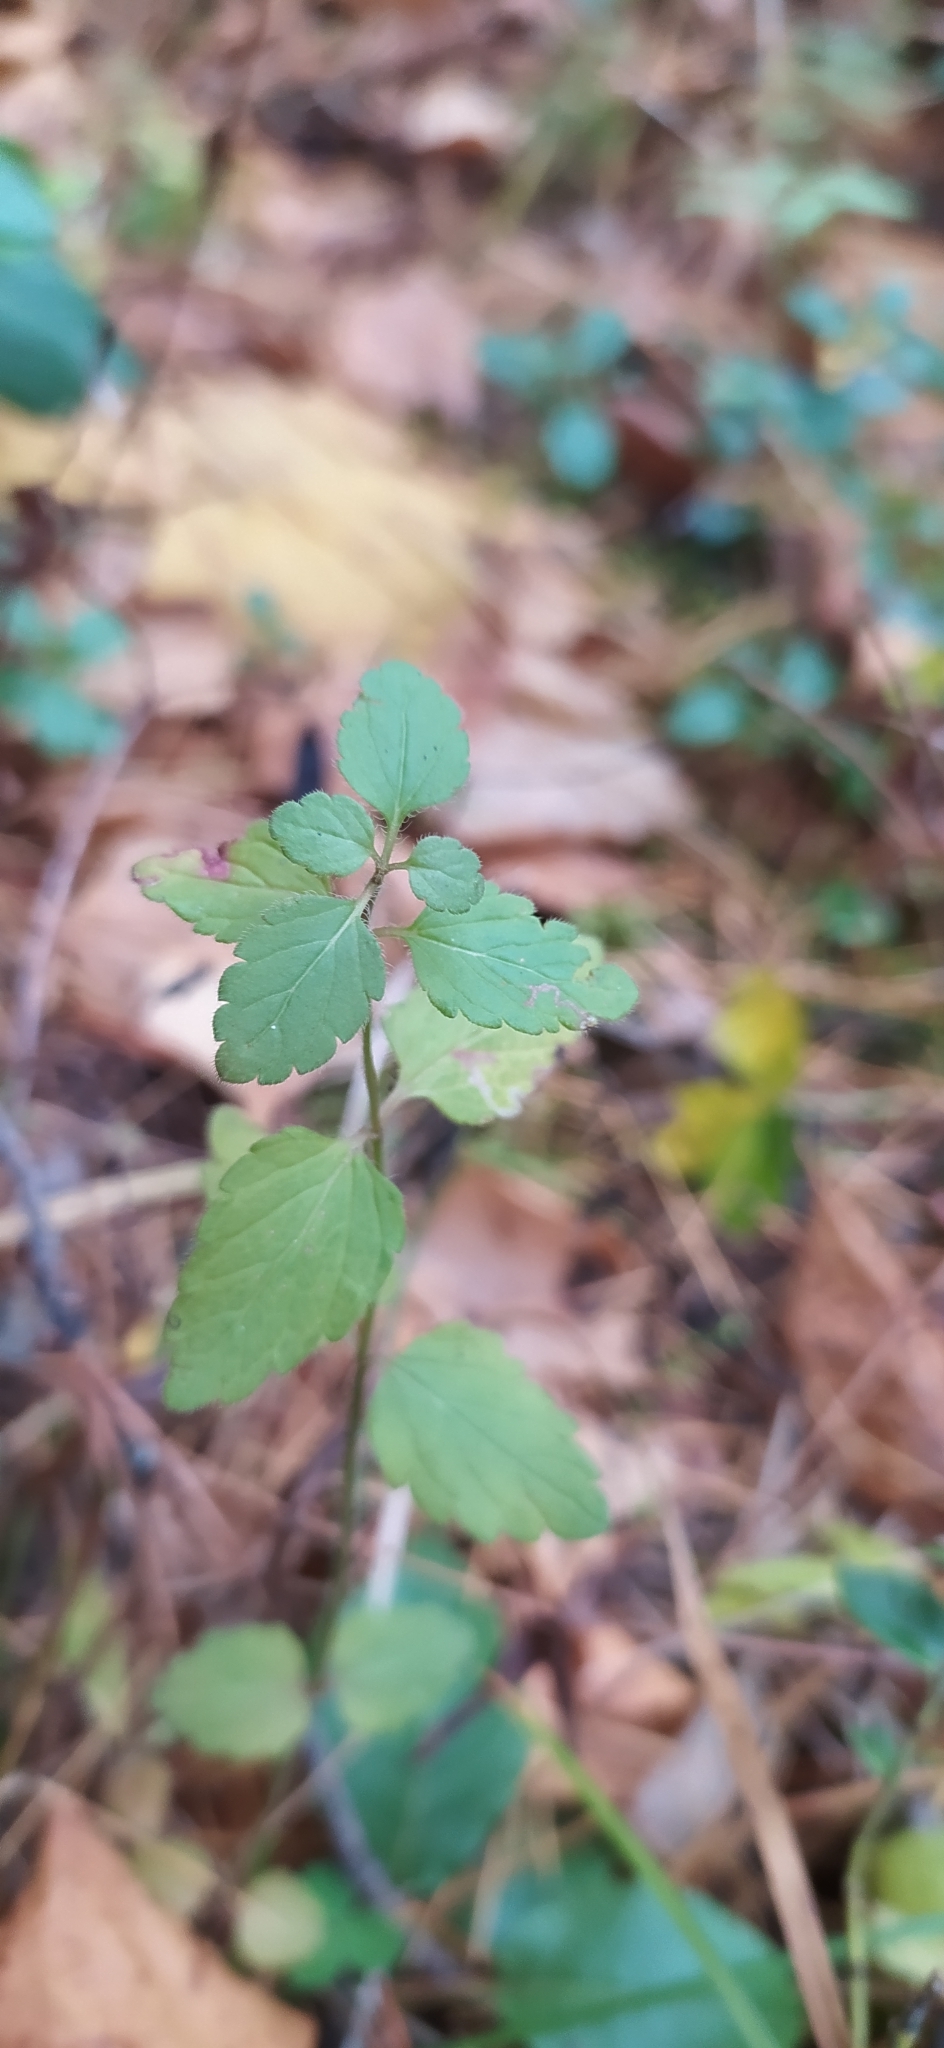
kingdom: Plantae
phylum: Tracheophyta
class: Magnoliopsida
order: Lamiales
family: Plantaginaceae
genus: Veronica
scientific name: Veronica chamaedrys
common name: Germander speedwell
